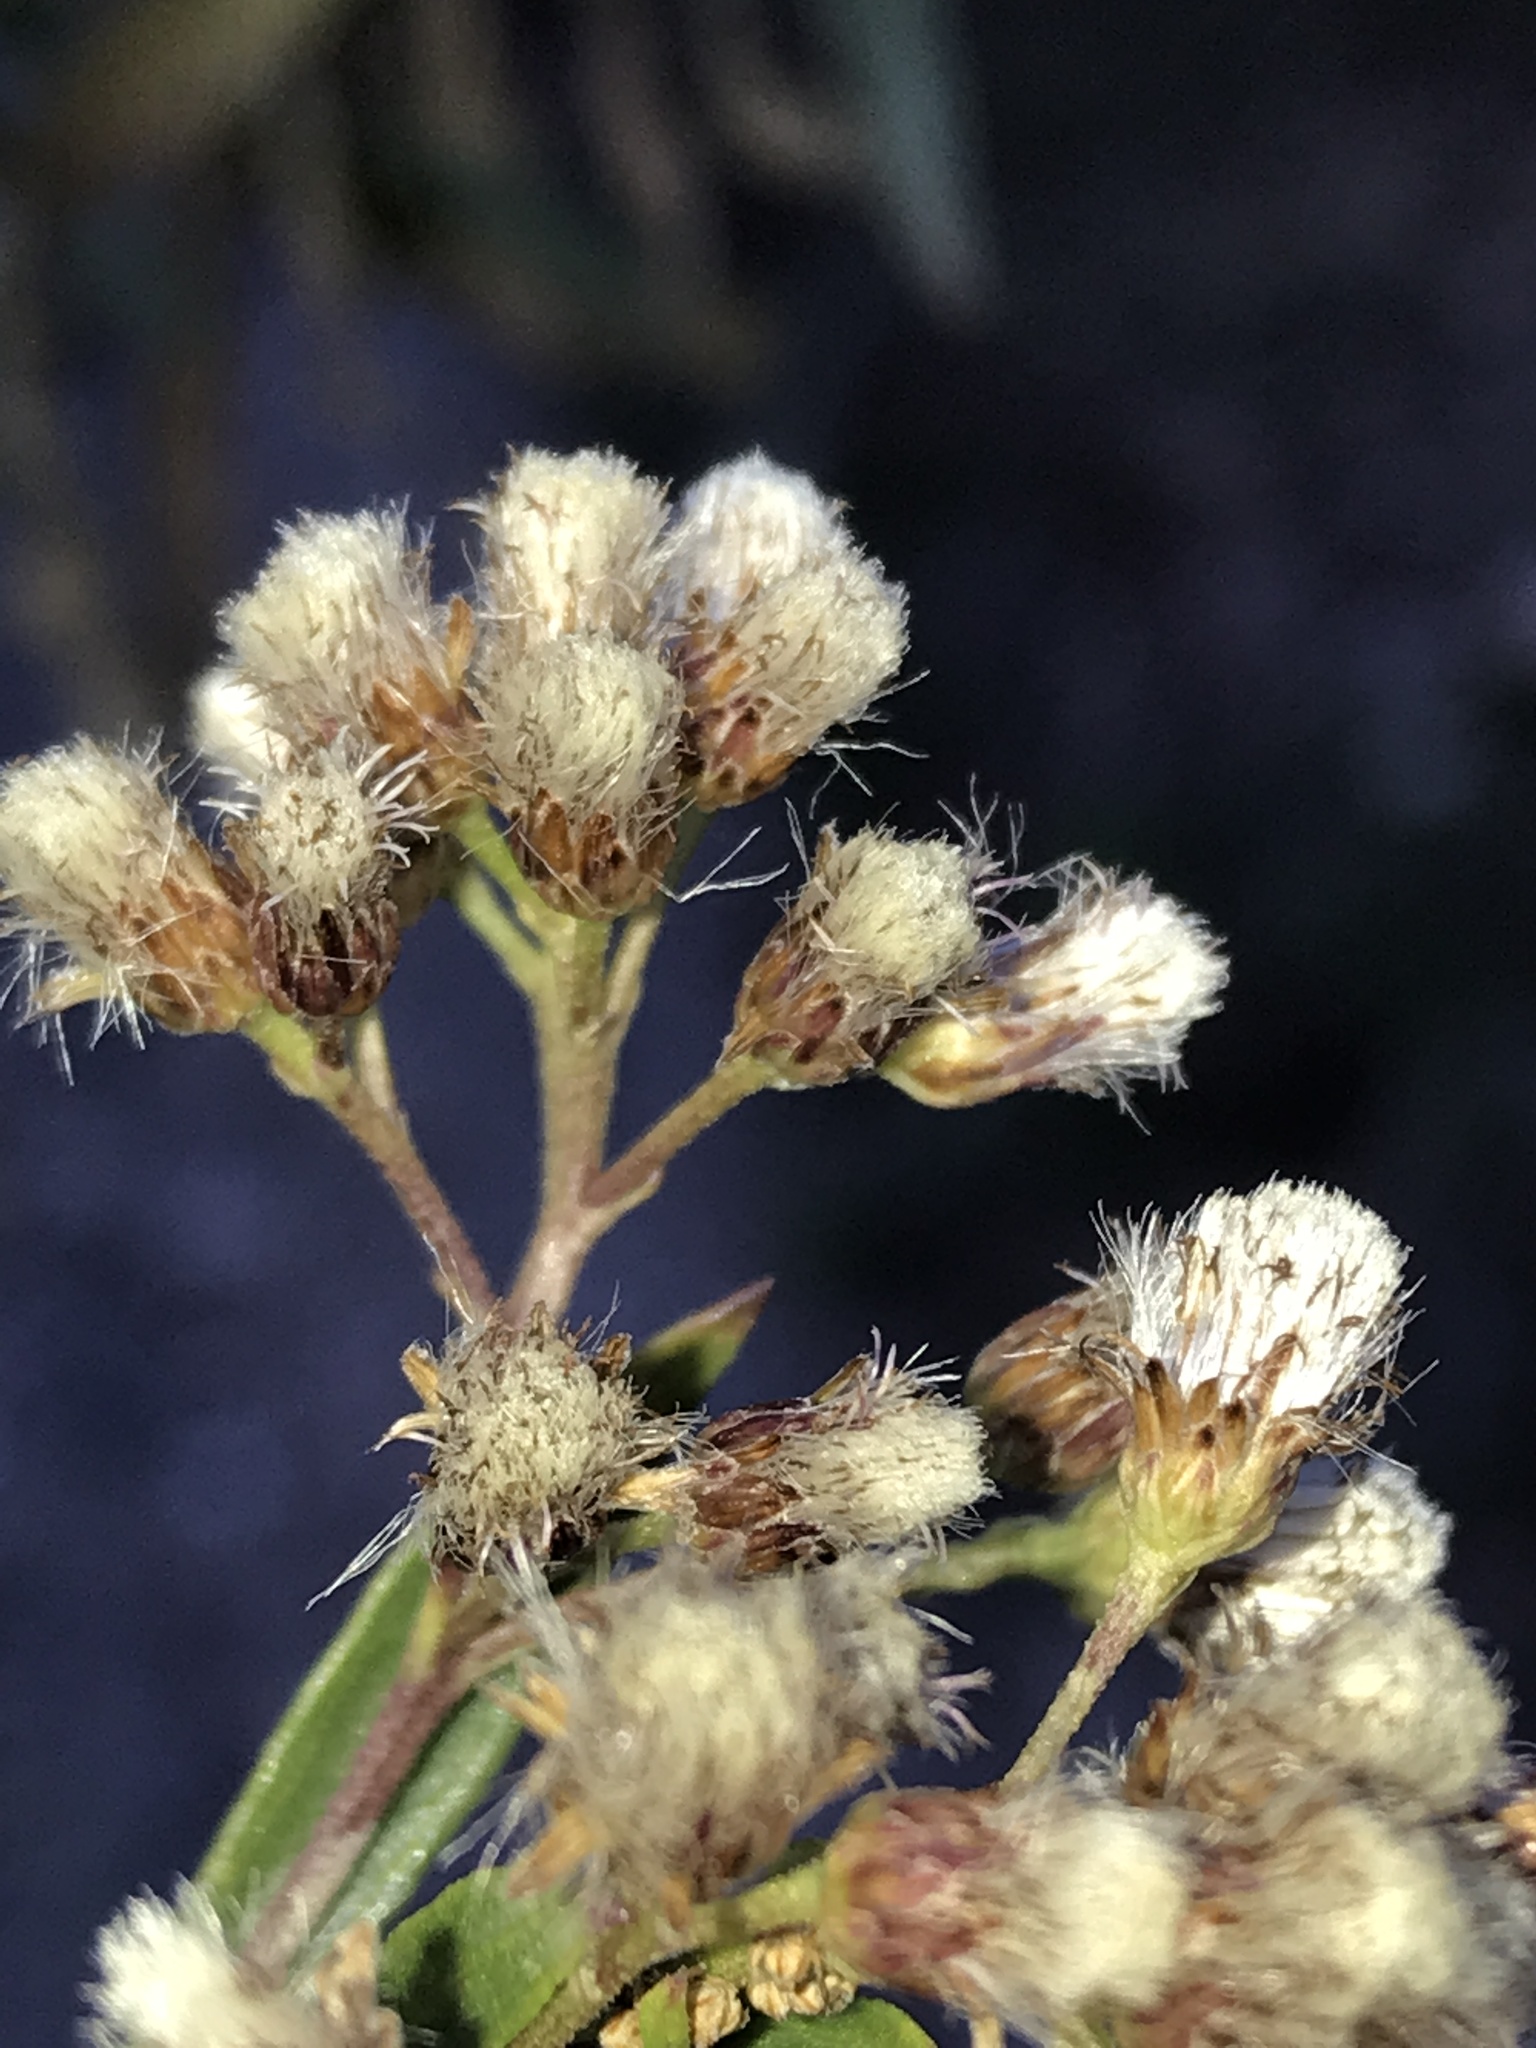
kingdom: Plantae
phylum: Tracheophyta
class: Magnoliopsida
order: Asterales
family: Asteraceae
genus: Baccharis
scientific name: Baccharis salicifolia
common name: Sticky baccharis
